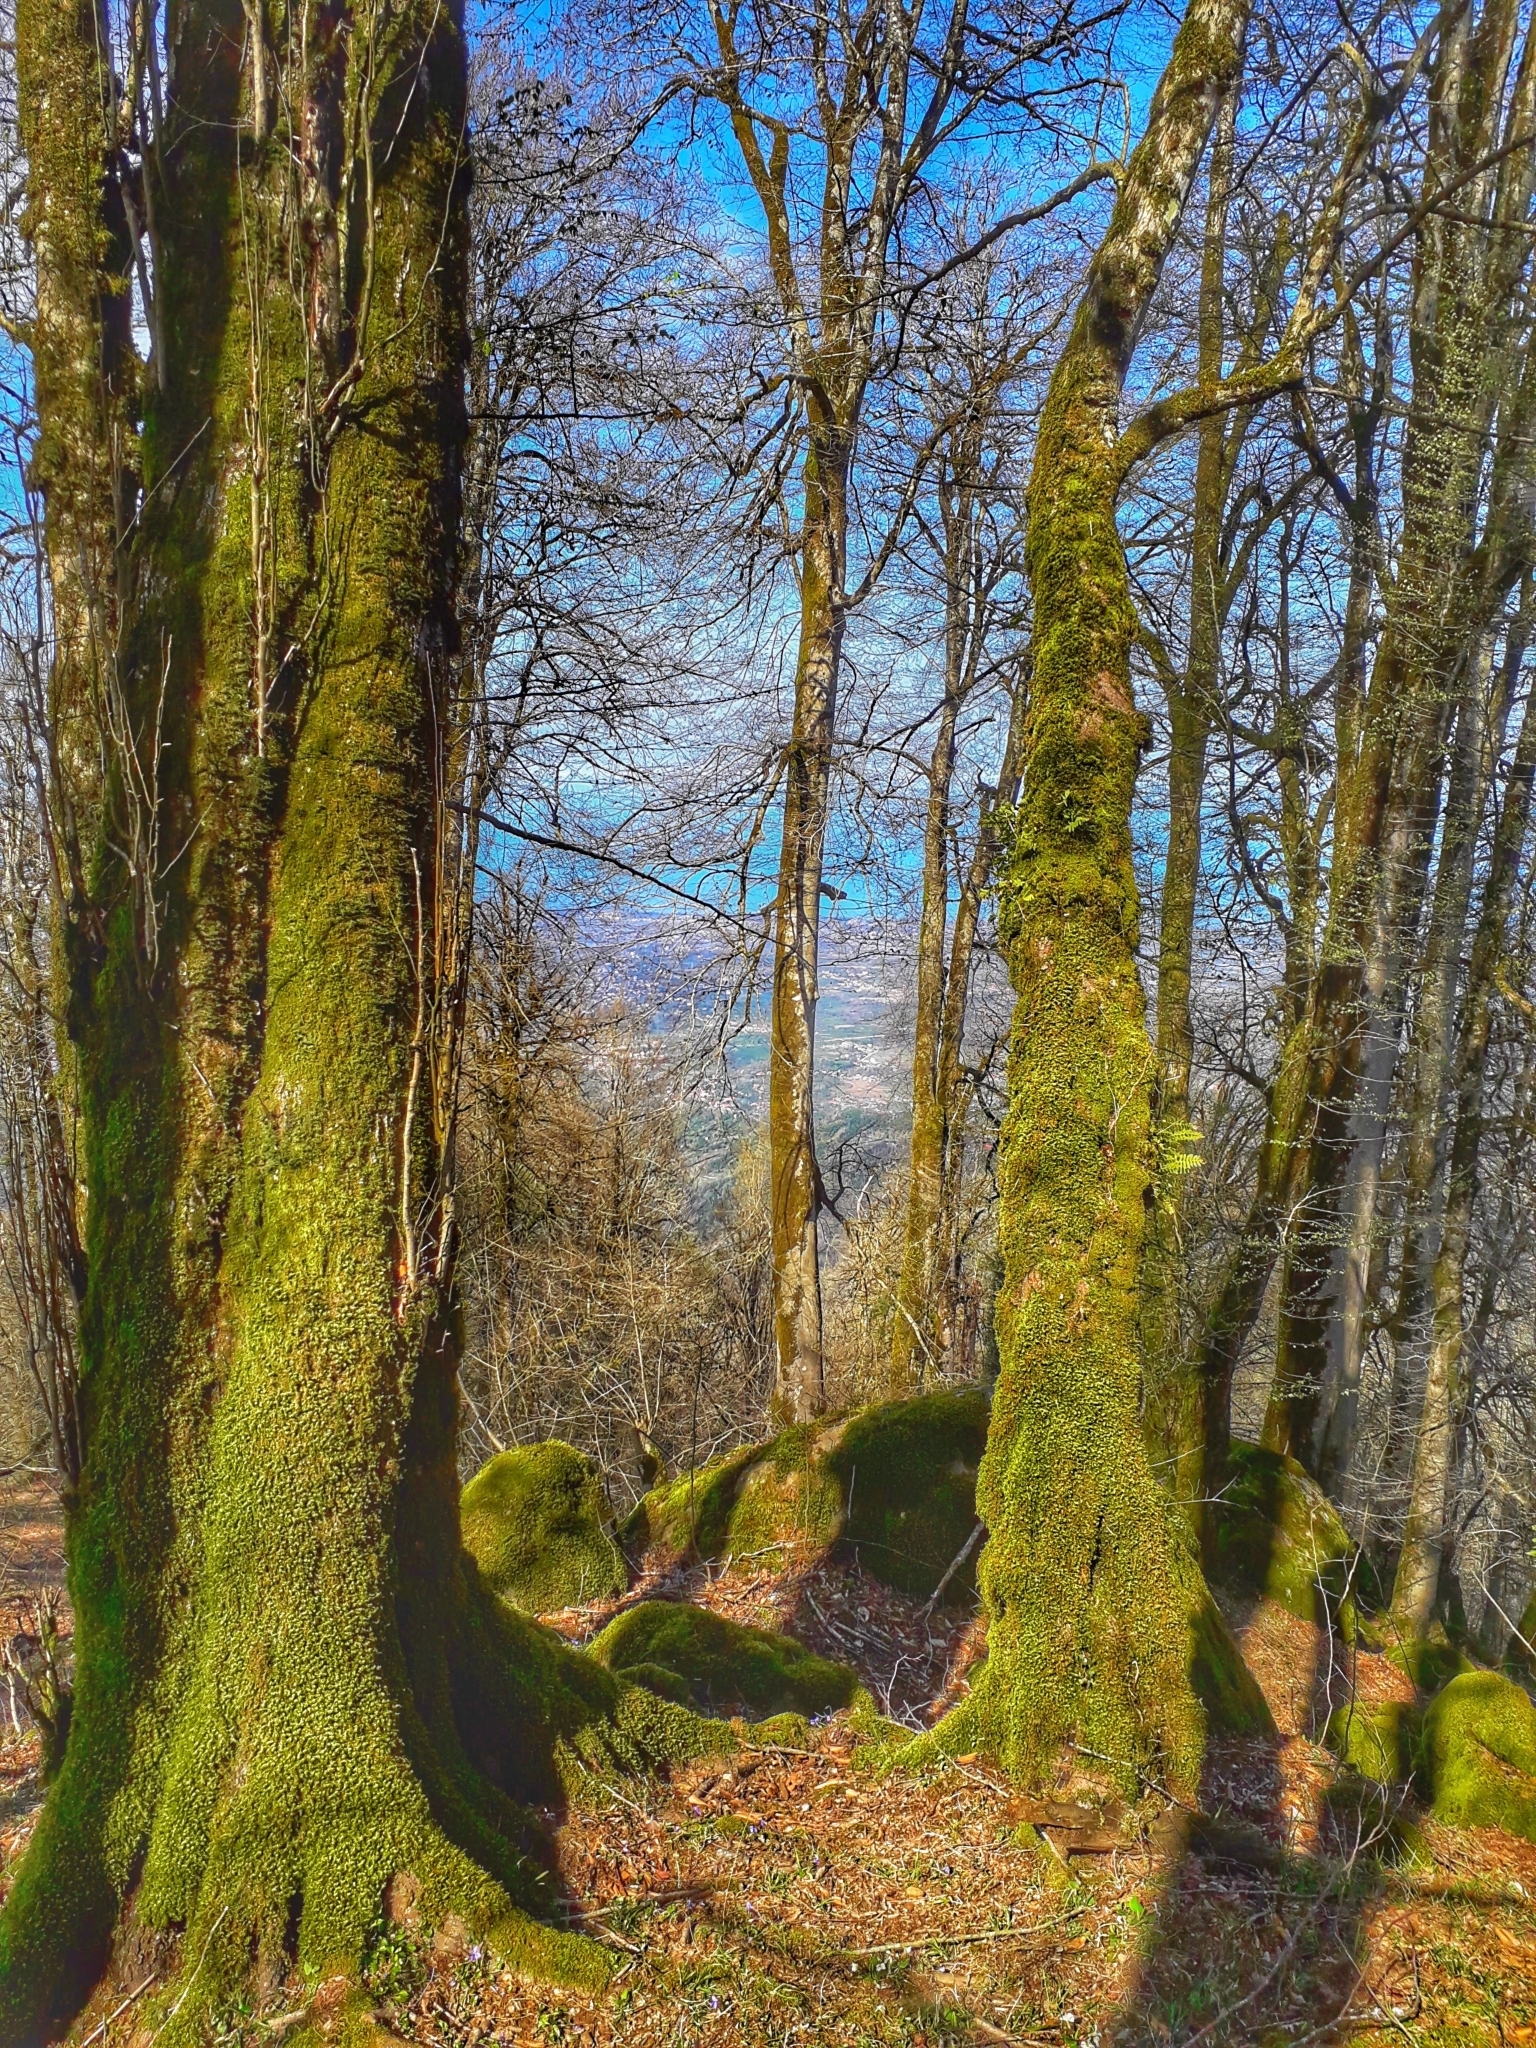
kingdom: Plantae
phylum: Tracheophyta
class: Magnoliopsida
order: Saxifragales
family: Hamamelidaceae
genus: Parrotia
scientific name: Parrotia persica
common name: Persian ironwood
